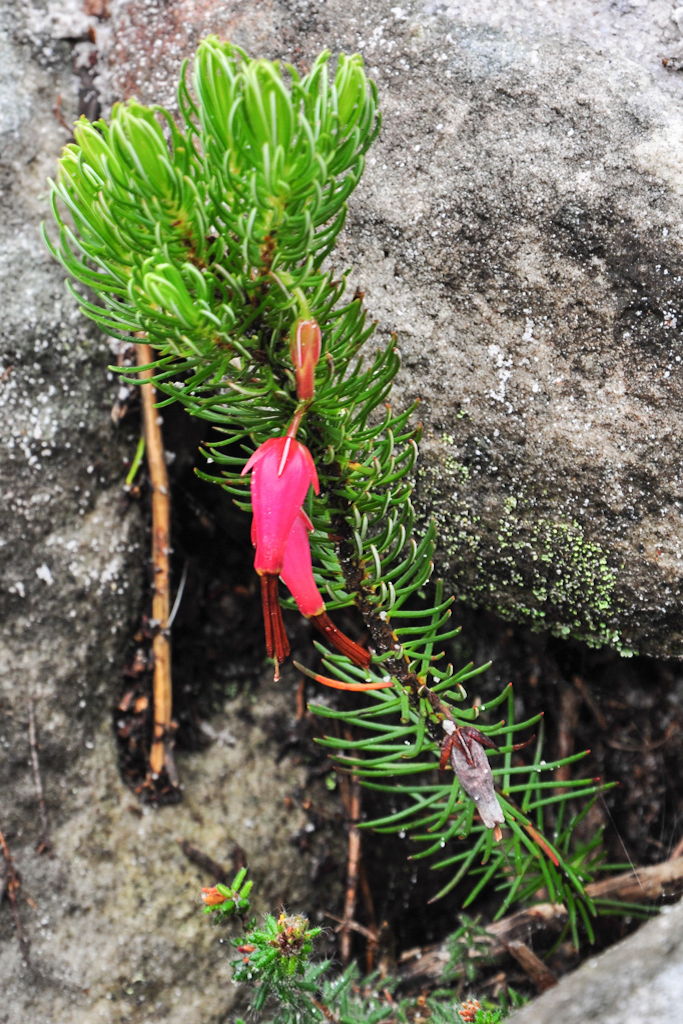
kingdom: Plantae
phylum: Tracheophyta
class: Magnoliopsida
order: Ericales
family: Ericaceae
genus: Erica
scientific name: Erica plukenetii
